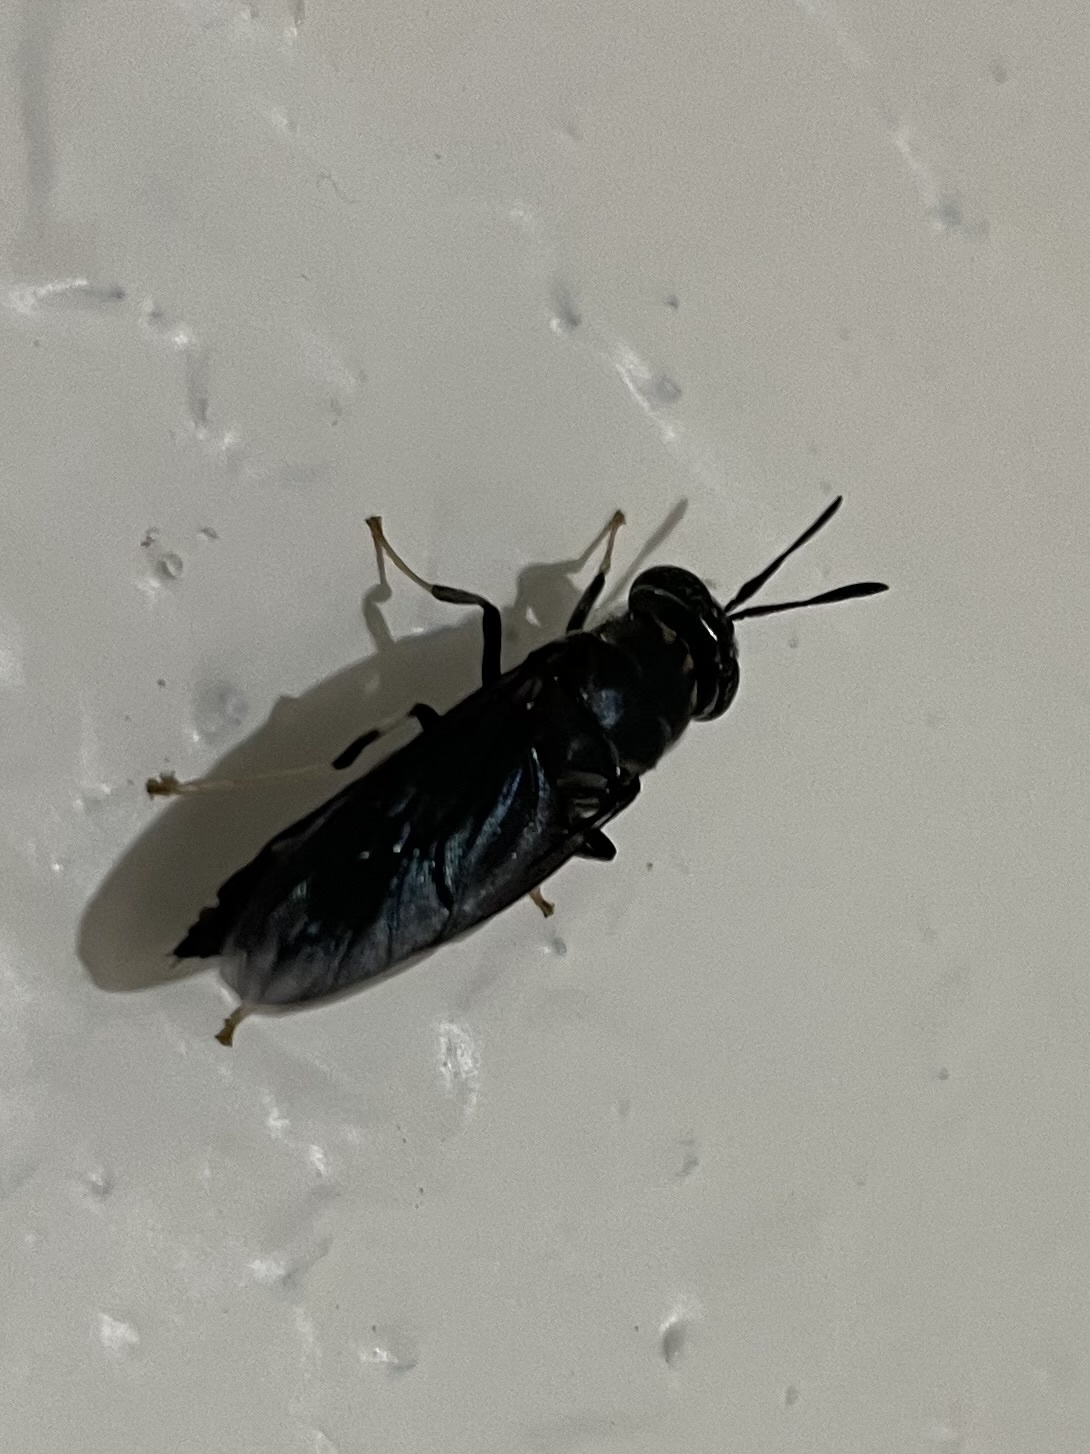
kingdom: Animalia
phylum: Arthropoda
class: Insecta
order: Diptera
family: Stratiomyidae
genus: Hermetia
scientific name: Hermetia illucens
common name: Black soldier fly
